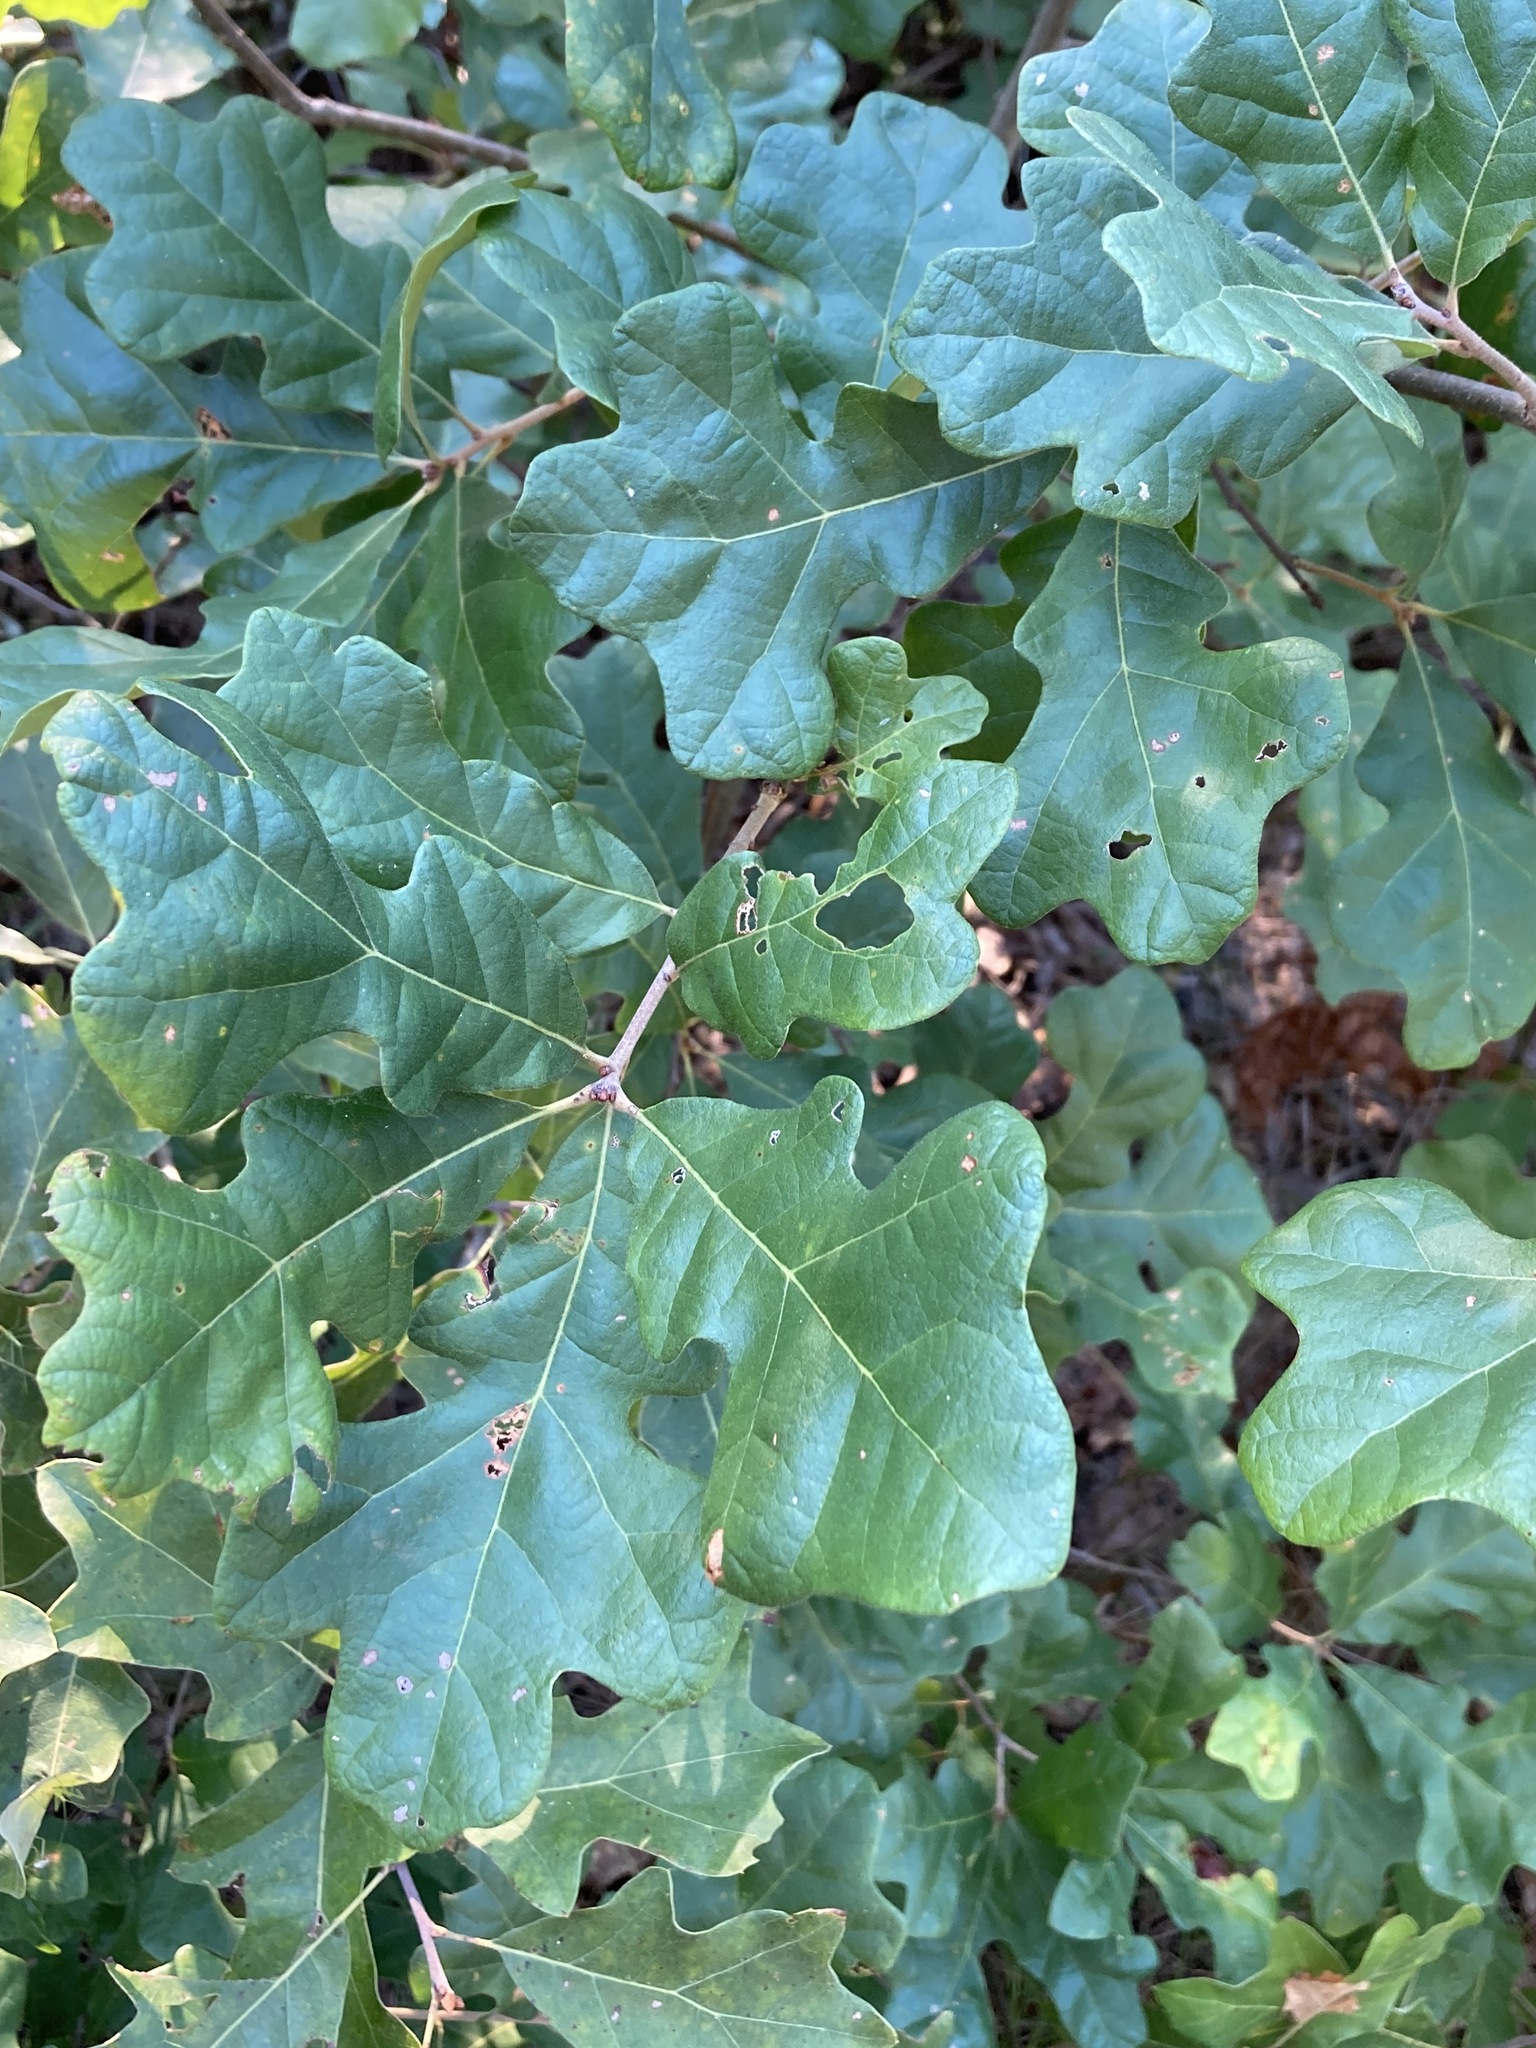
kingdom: Plantae
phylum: Tracheophyta
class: Magnoliopsida
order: Fagales
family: Fagaceae
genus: Quercus
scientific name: Quercus stellata
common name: Post oak
